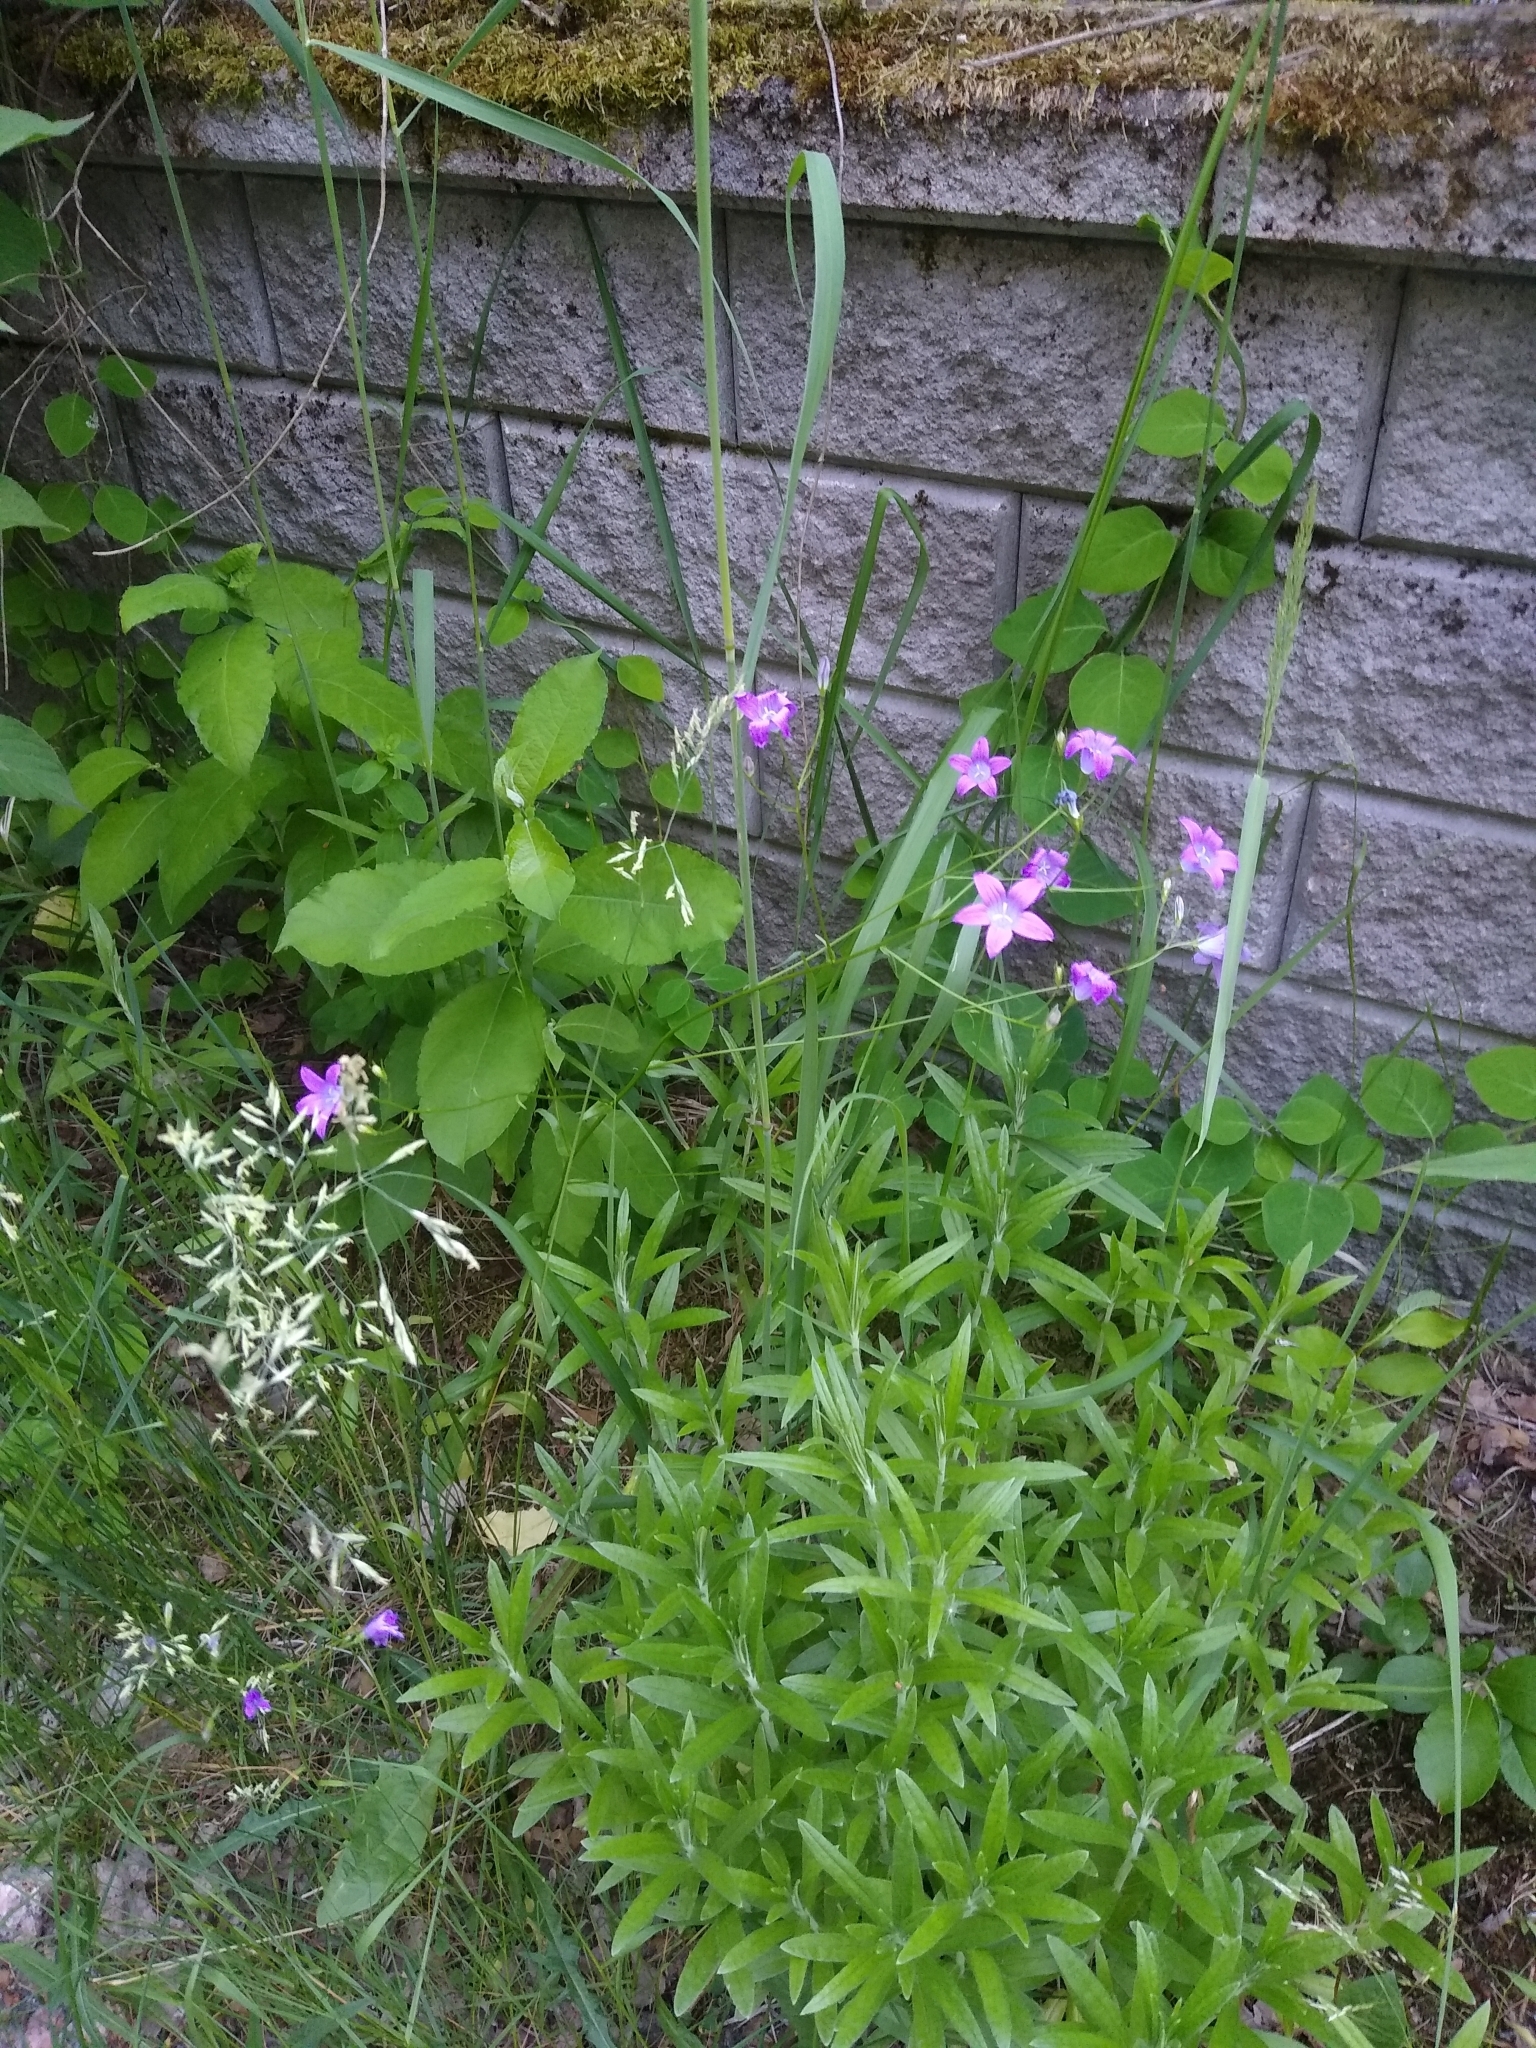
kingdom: Plantae
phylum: Tracheophyta
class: Magnoliopsida
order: Asterales
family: Campanulaceae
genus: Campanula
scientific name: Campanula patula
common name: Spreading bellflower
